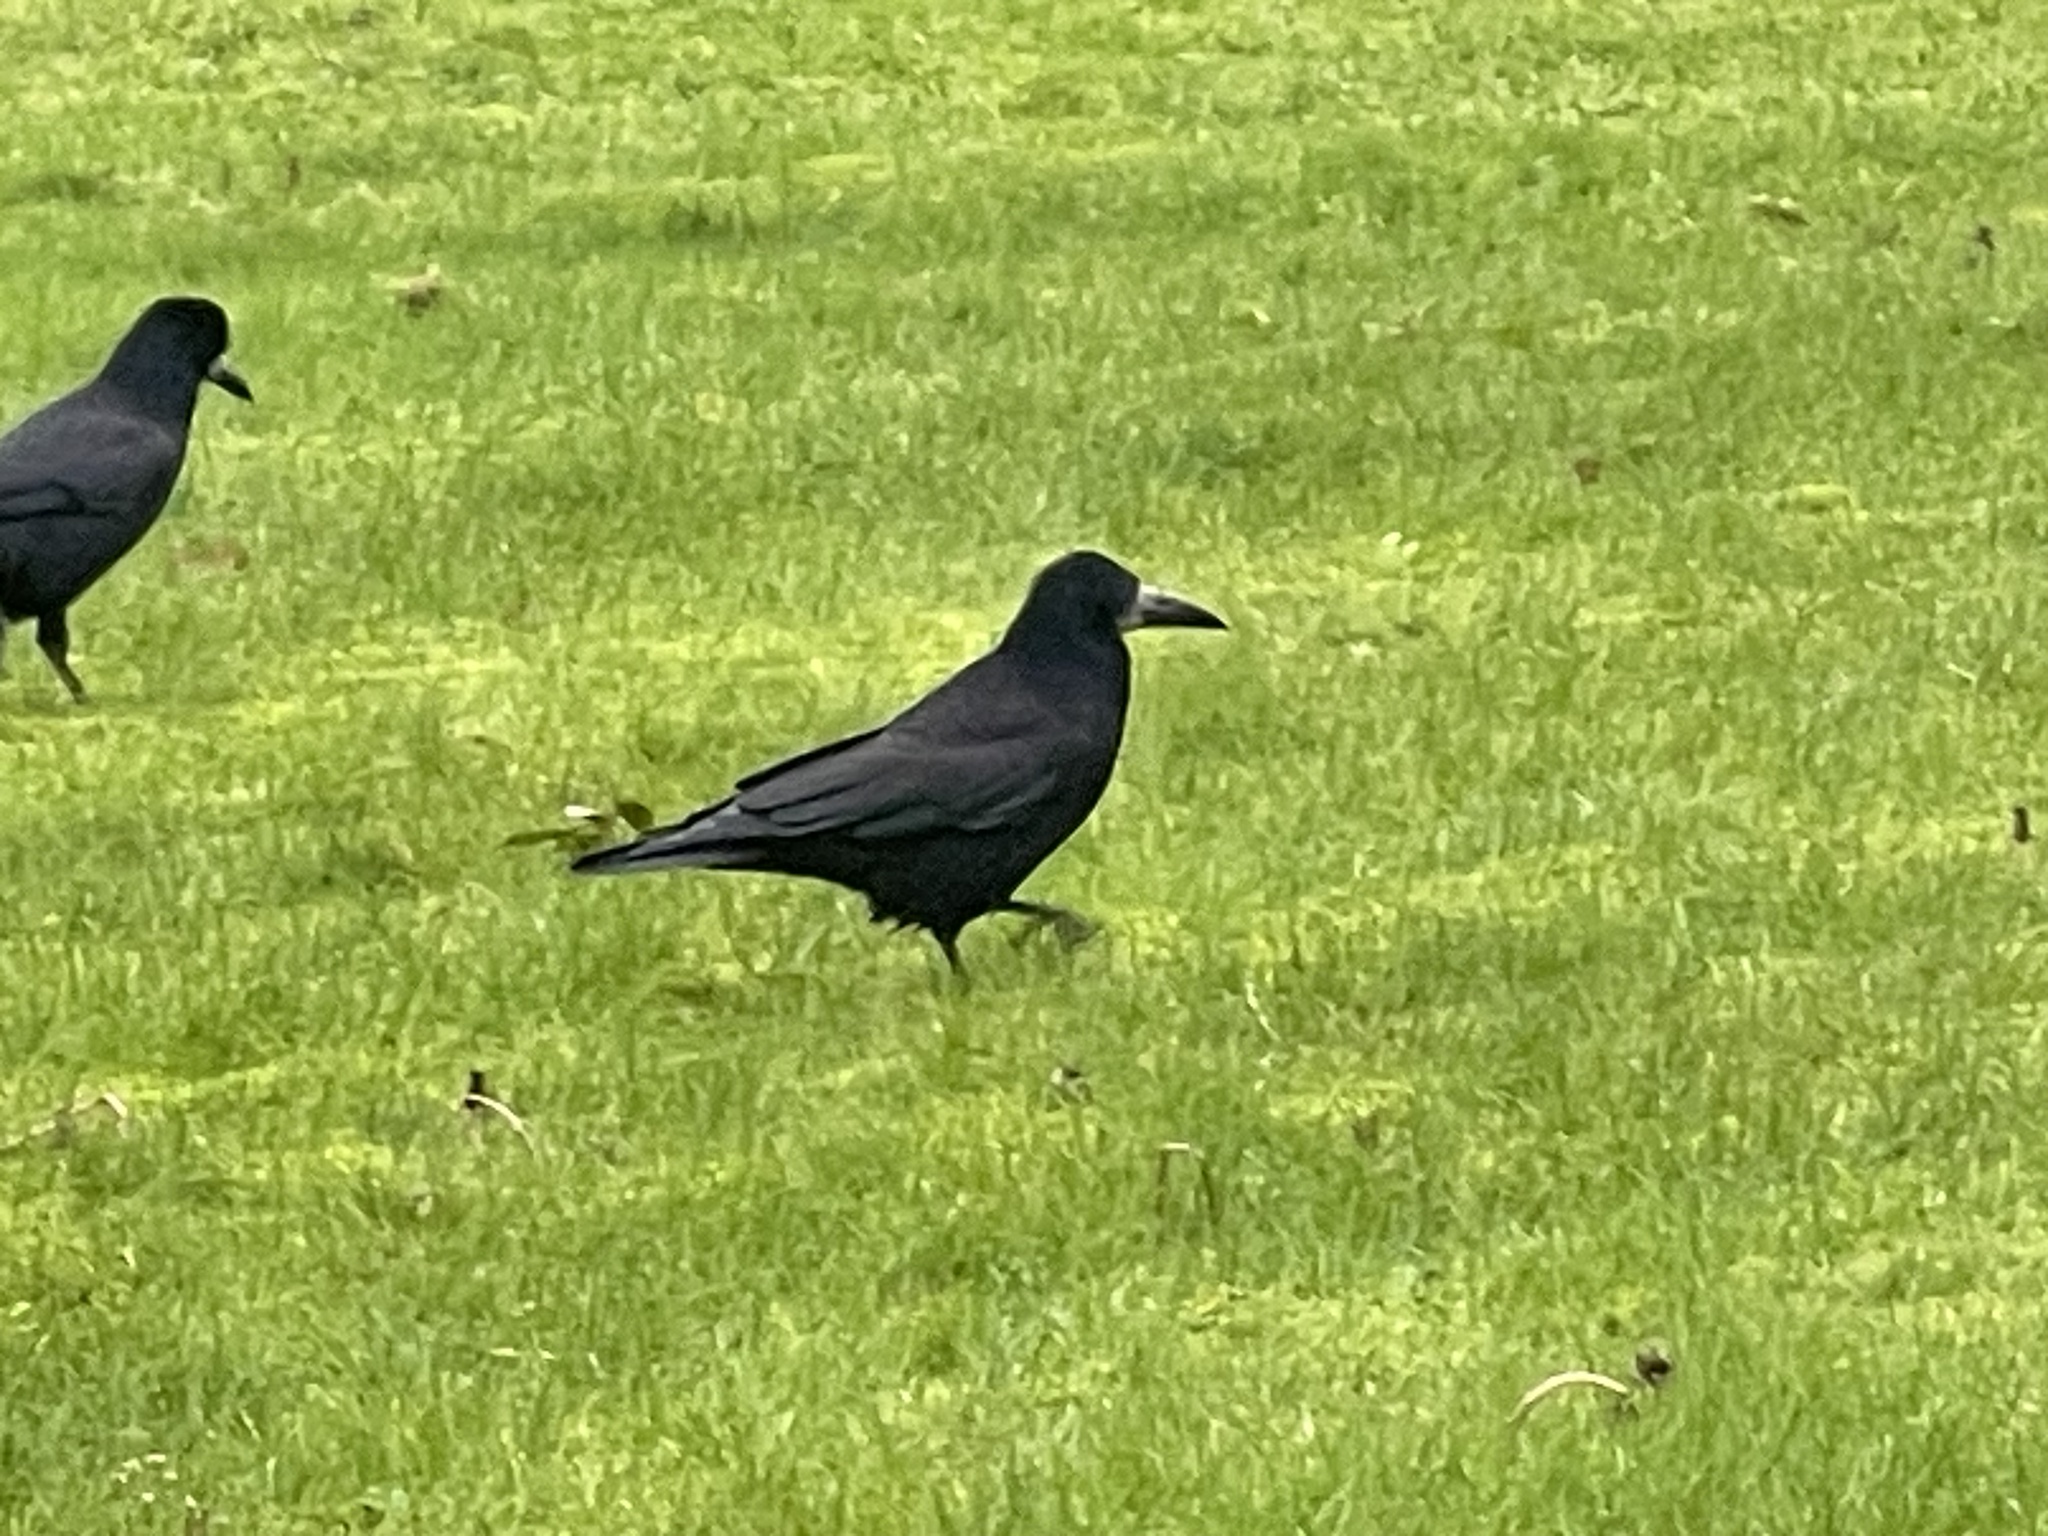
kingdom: Animalia
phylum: Chordata
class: Aves
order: Passeriformes
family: Corvidae
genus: Corvus
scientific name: Corvus frugilegus
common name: Rook
